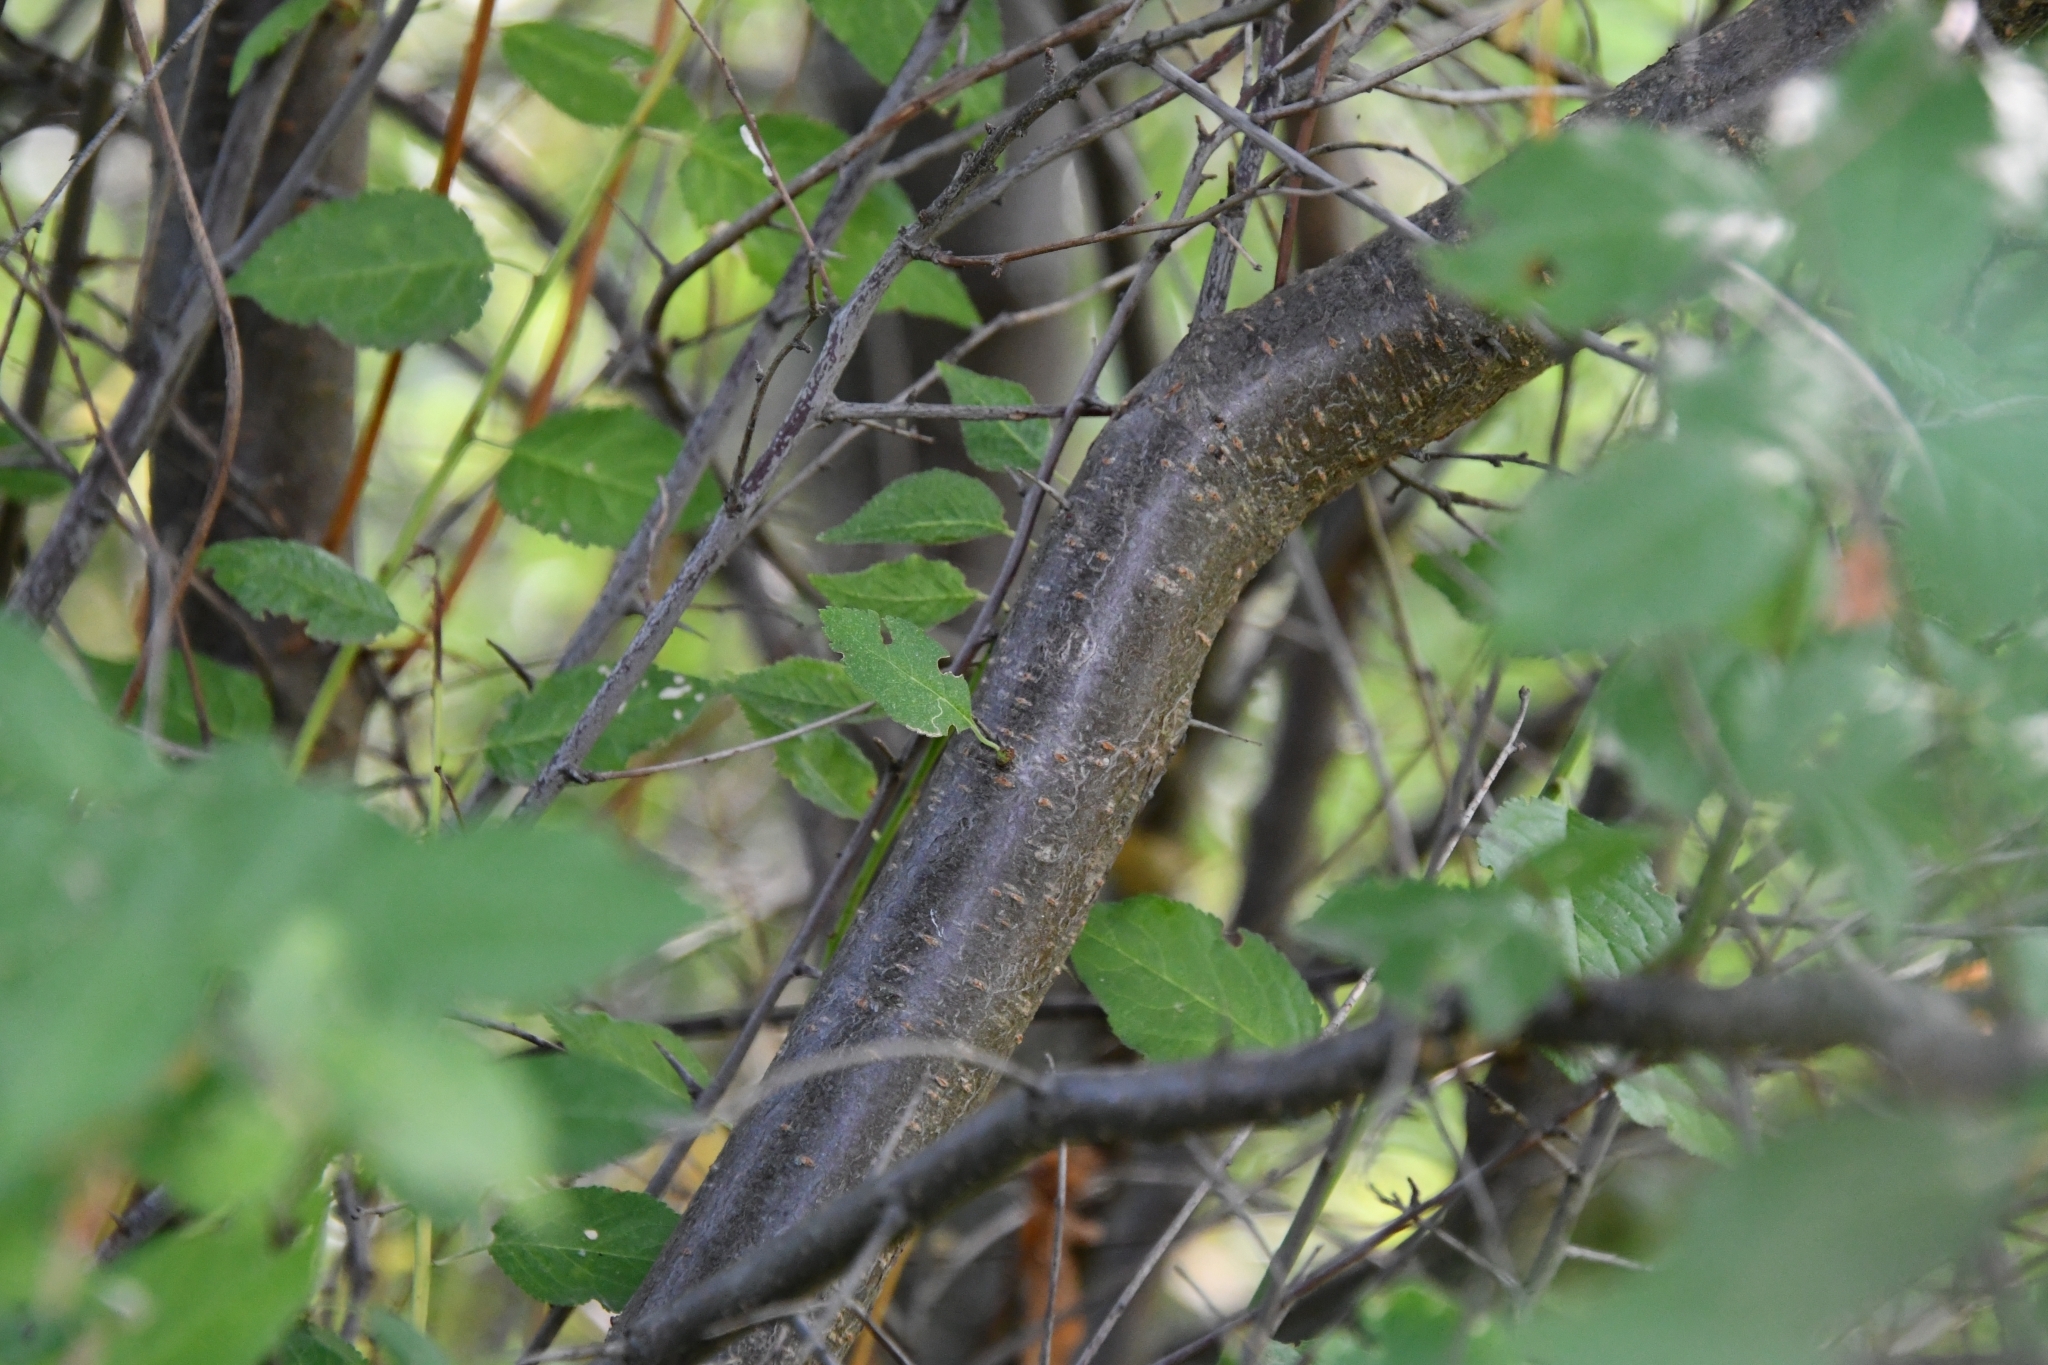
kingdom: Plantae
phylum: Tracheophyta
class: Magnoliopsida
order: Rosales
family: Rosaceae
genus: Prunus
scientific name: Prunus cerasifera
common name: Cherry plum
